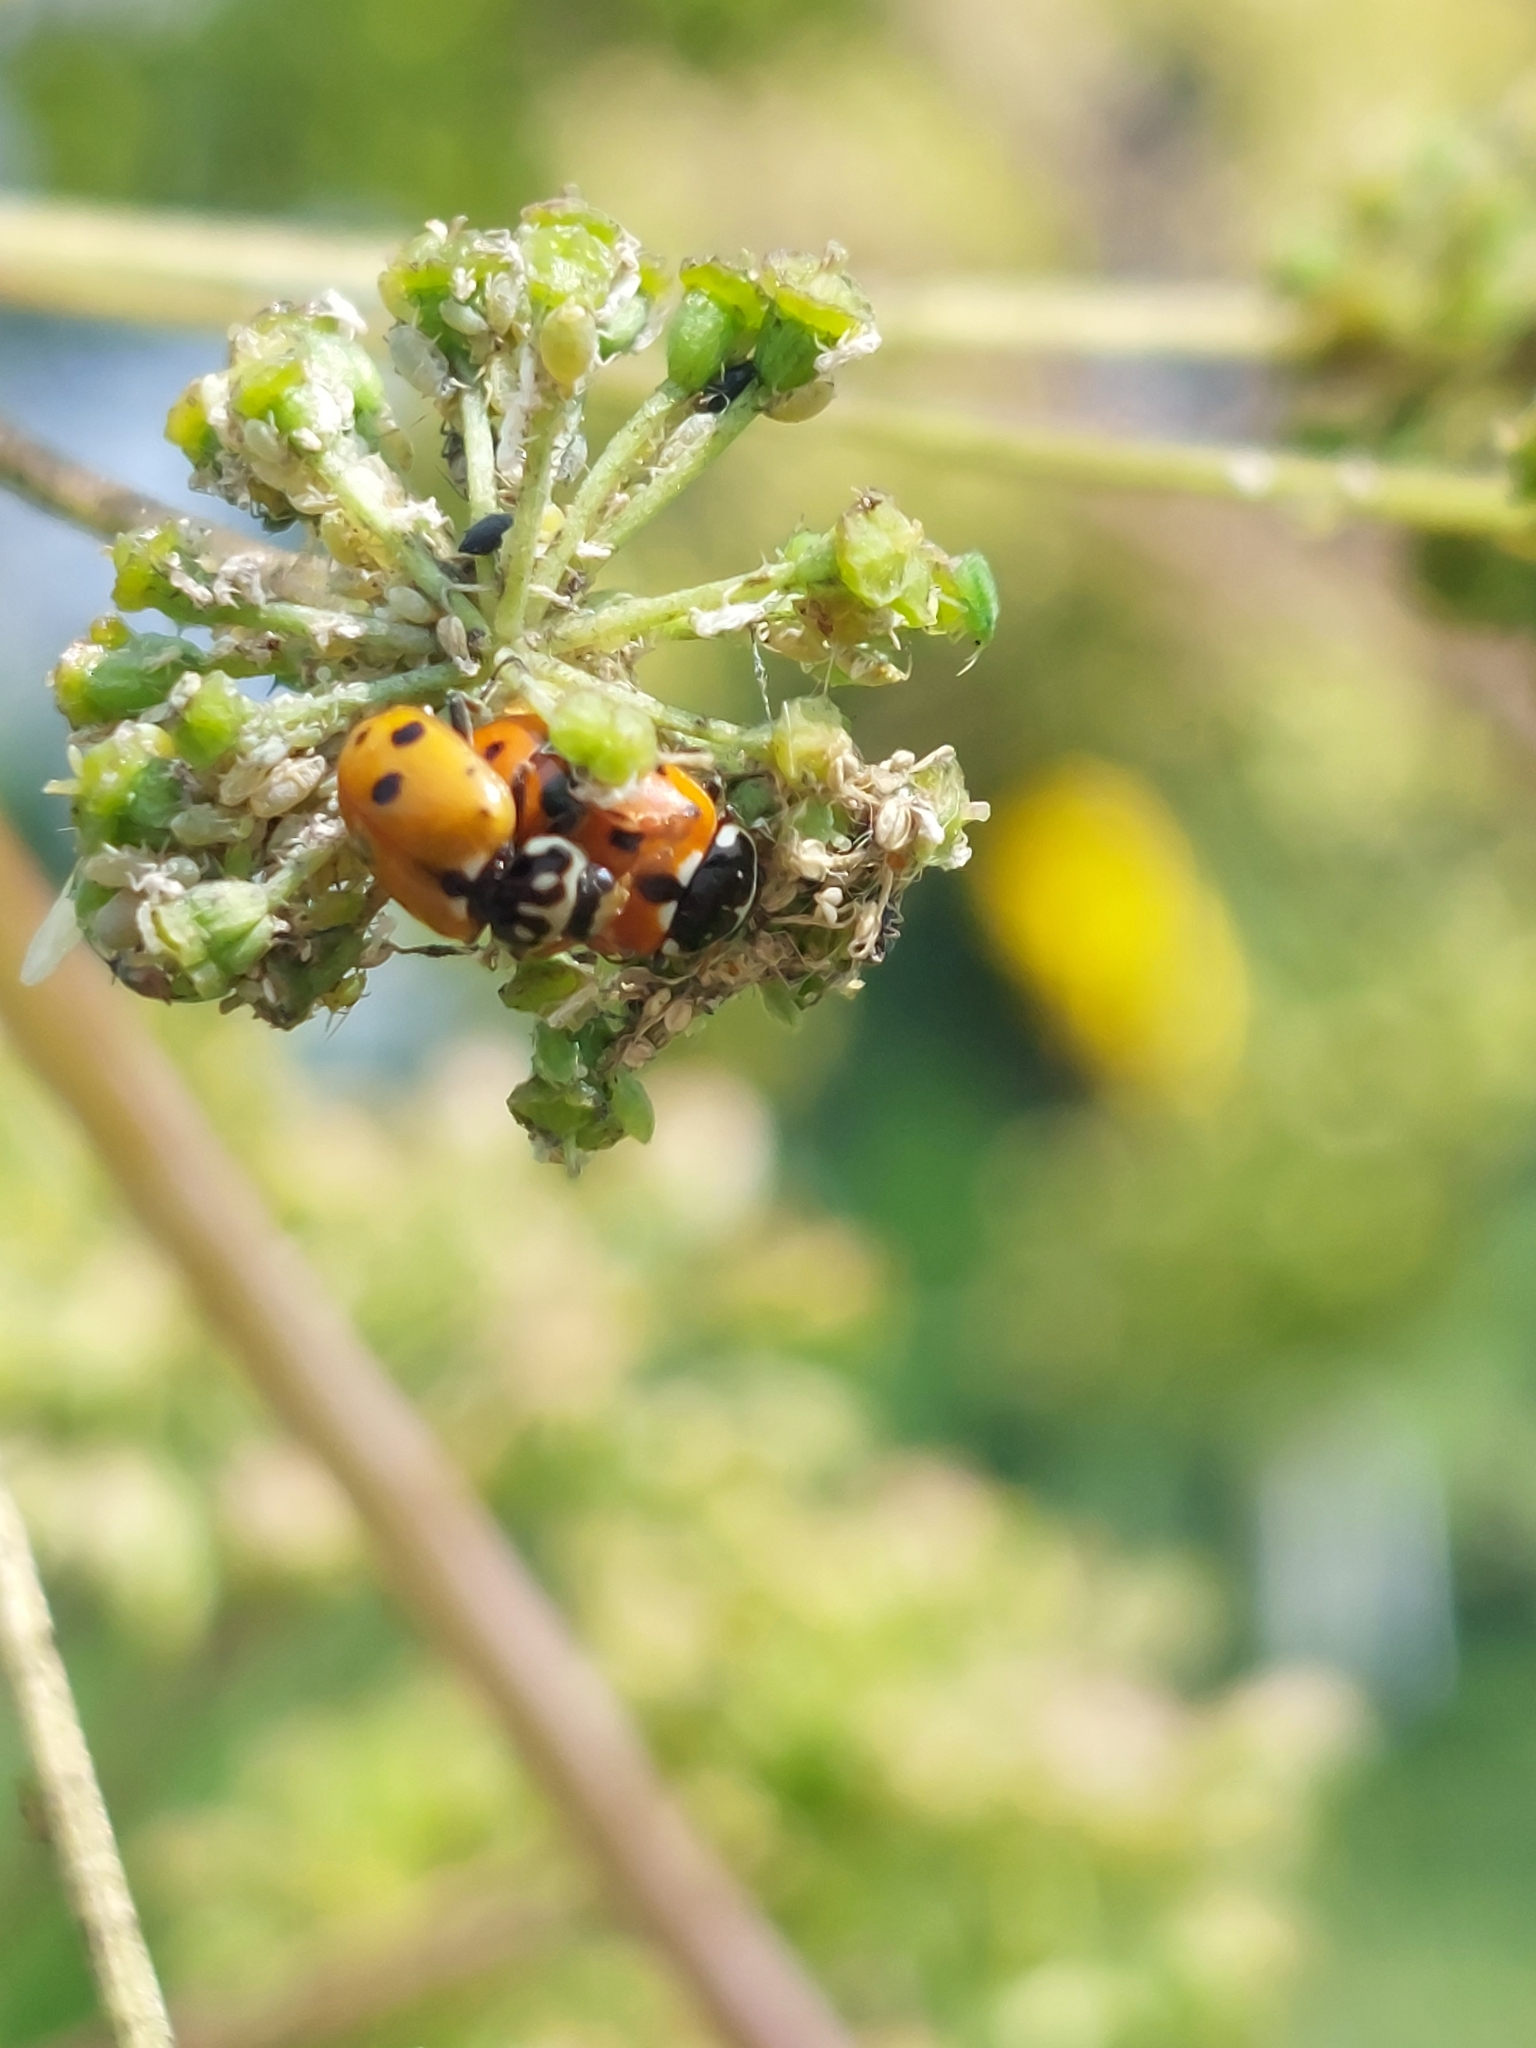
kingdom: Animalia
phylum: Arthropoda
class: Insecta
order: Coleoptera
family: Coccinellidae
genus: Hippodamia
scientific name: Hippodamia variegata
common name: Ladybird beetle
